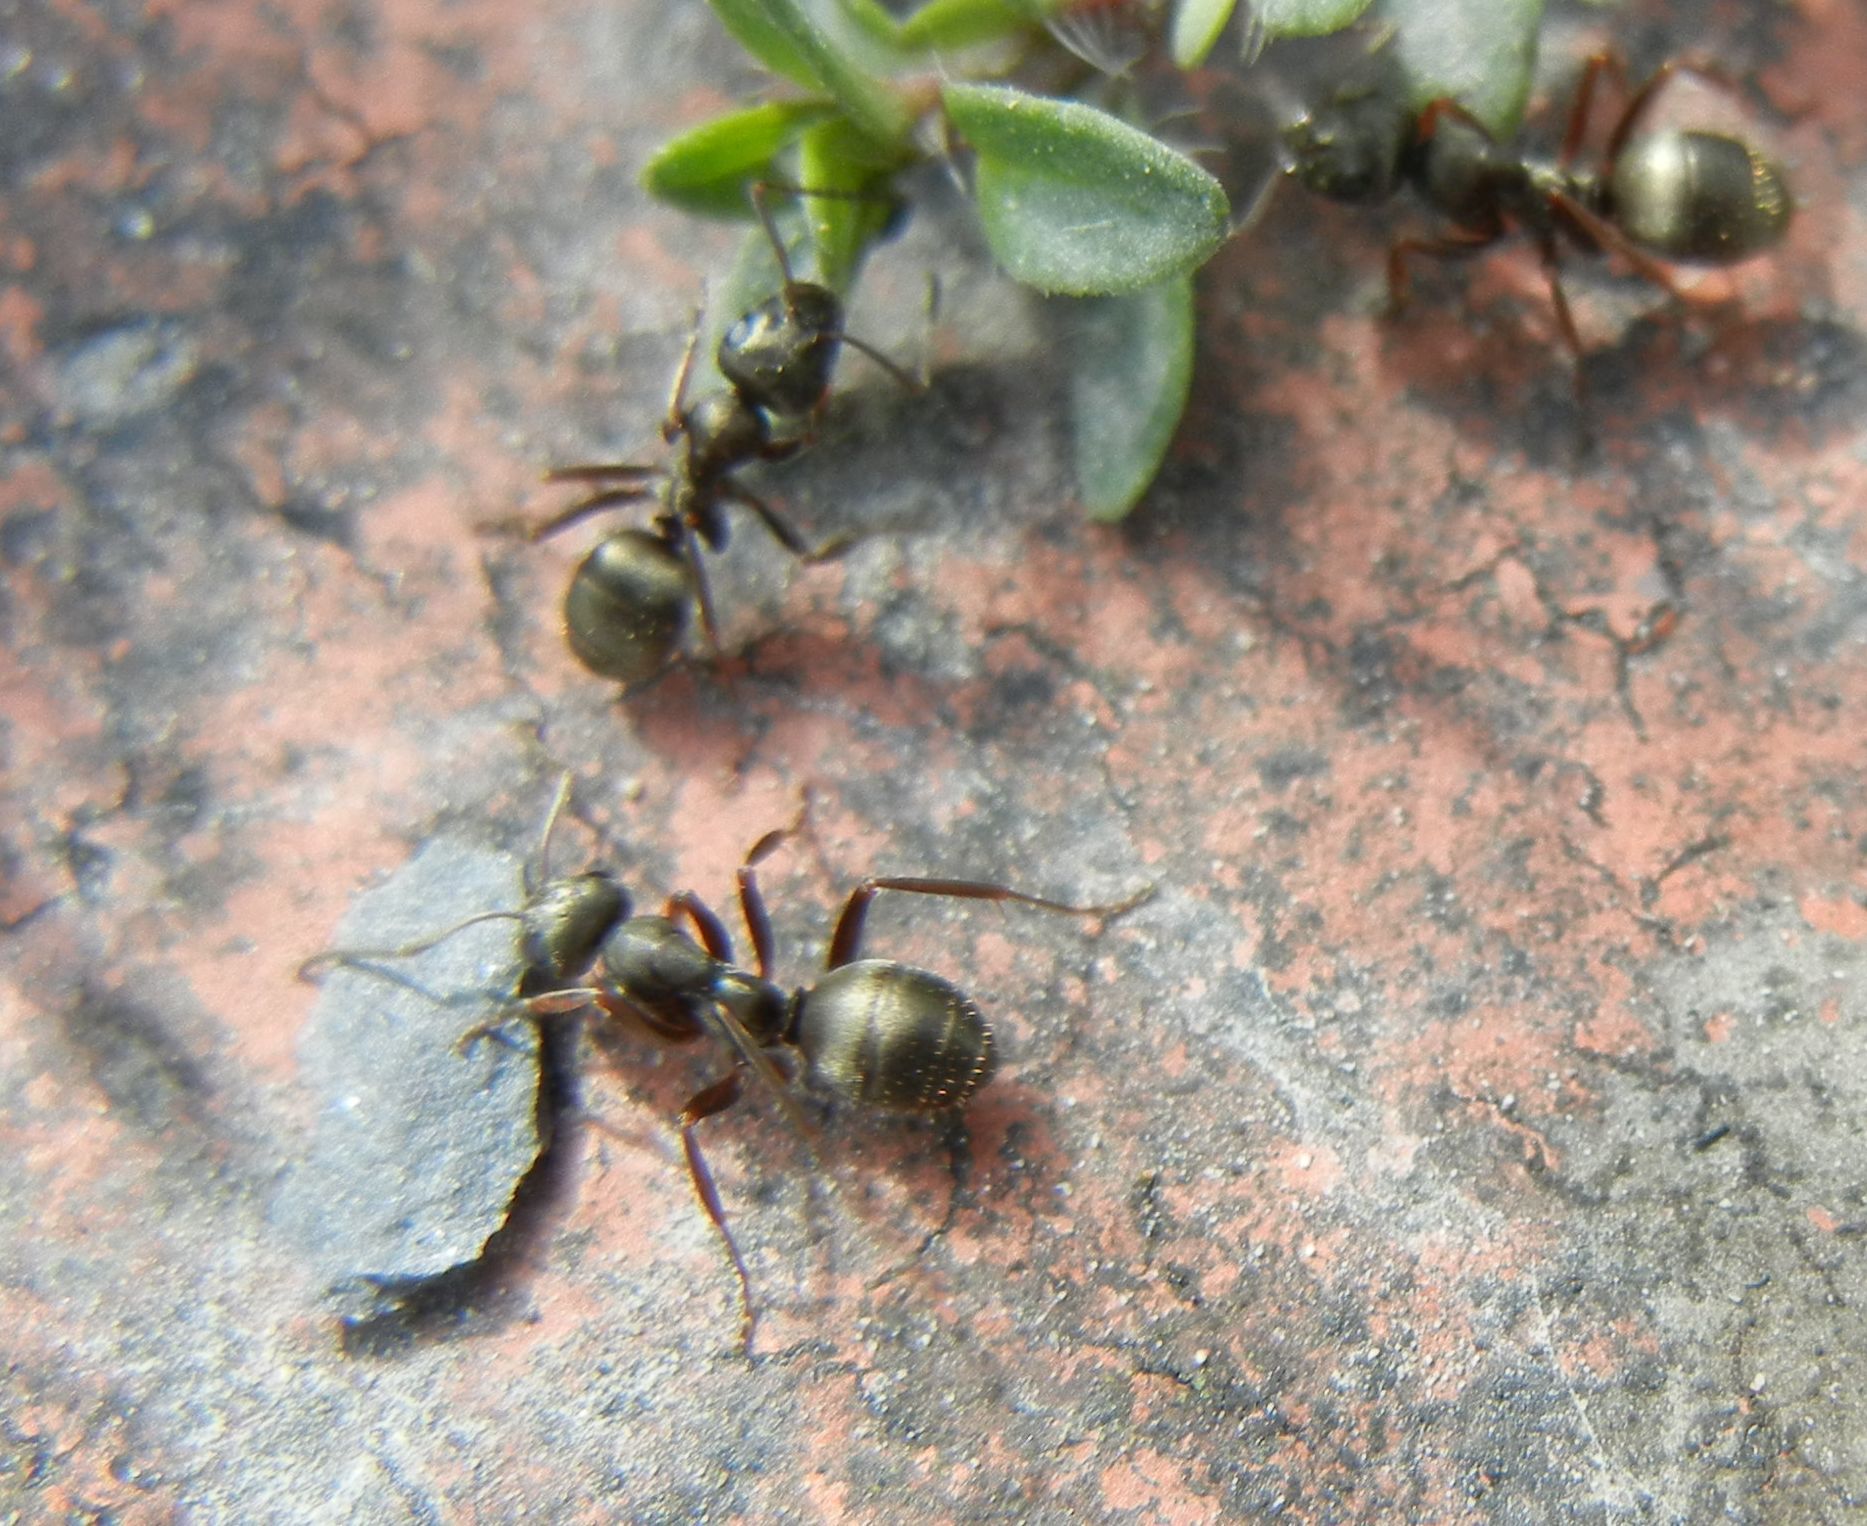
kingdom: Animalia
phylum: Arthropoda
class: Insecta
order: Hymenoptera
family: Formicidae
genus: Formica
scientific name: Formica fusca
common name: Silky ant
